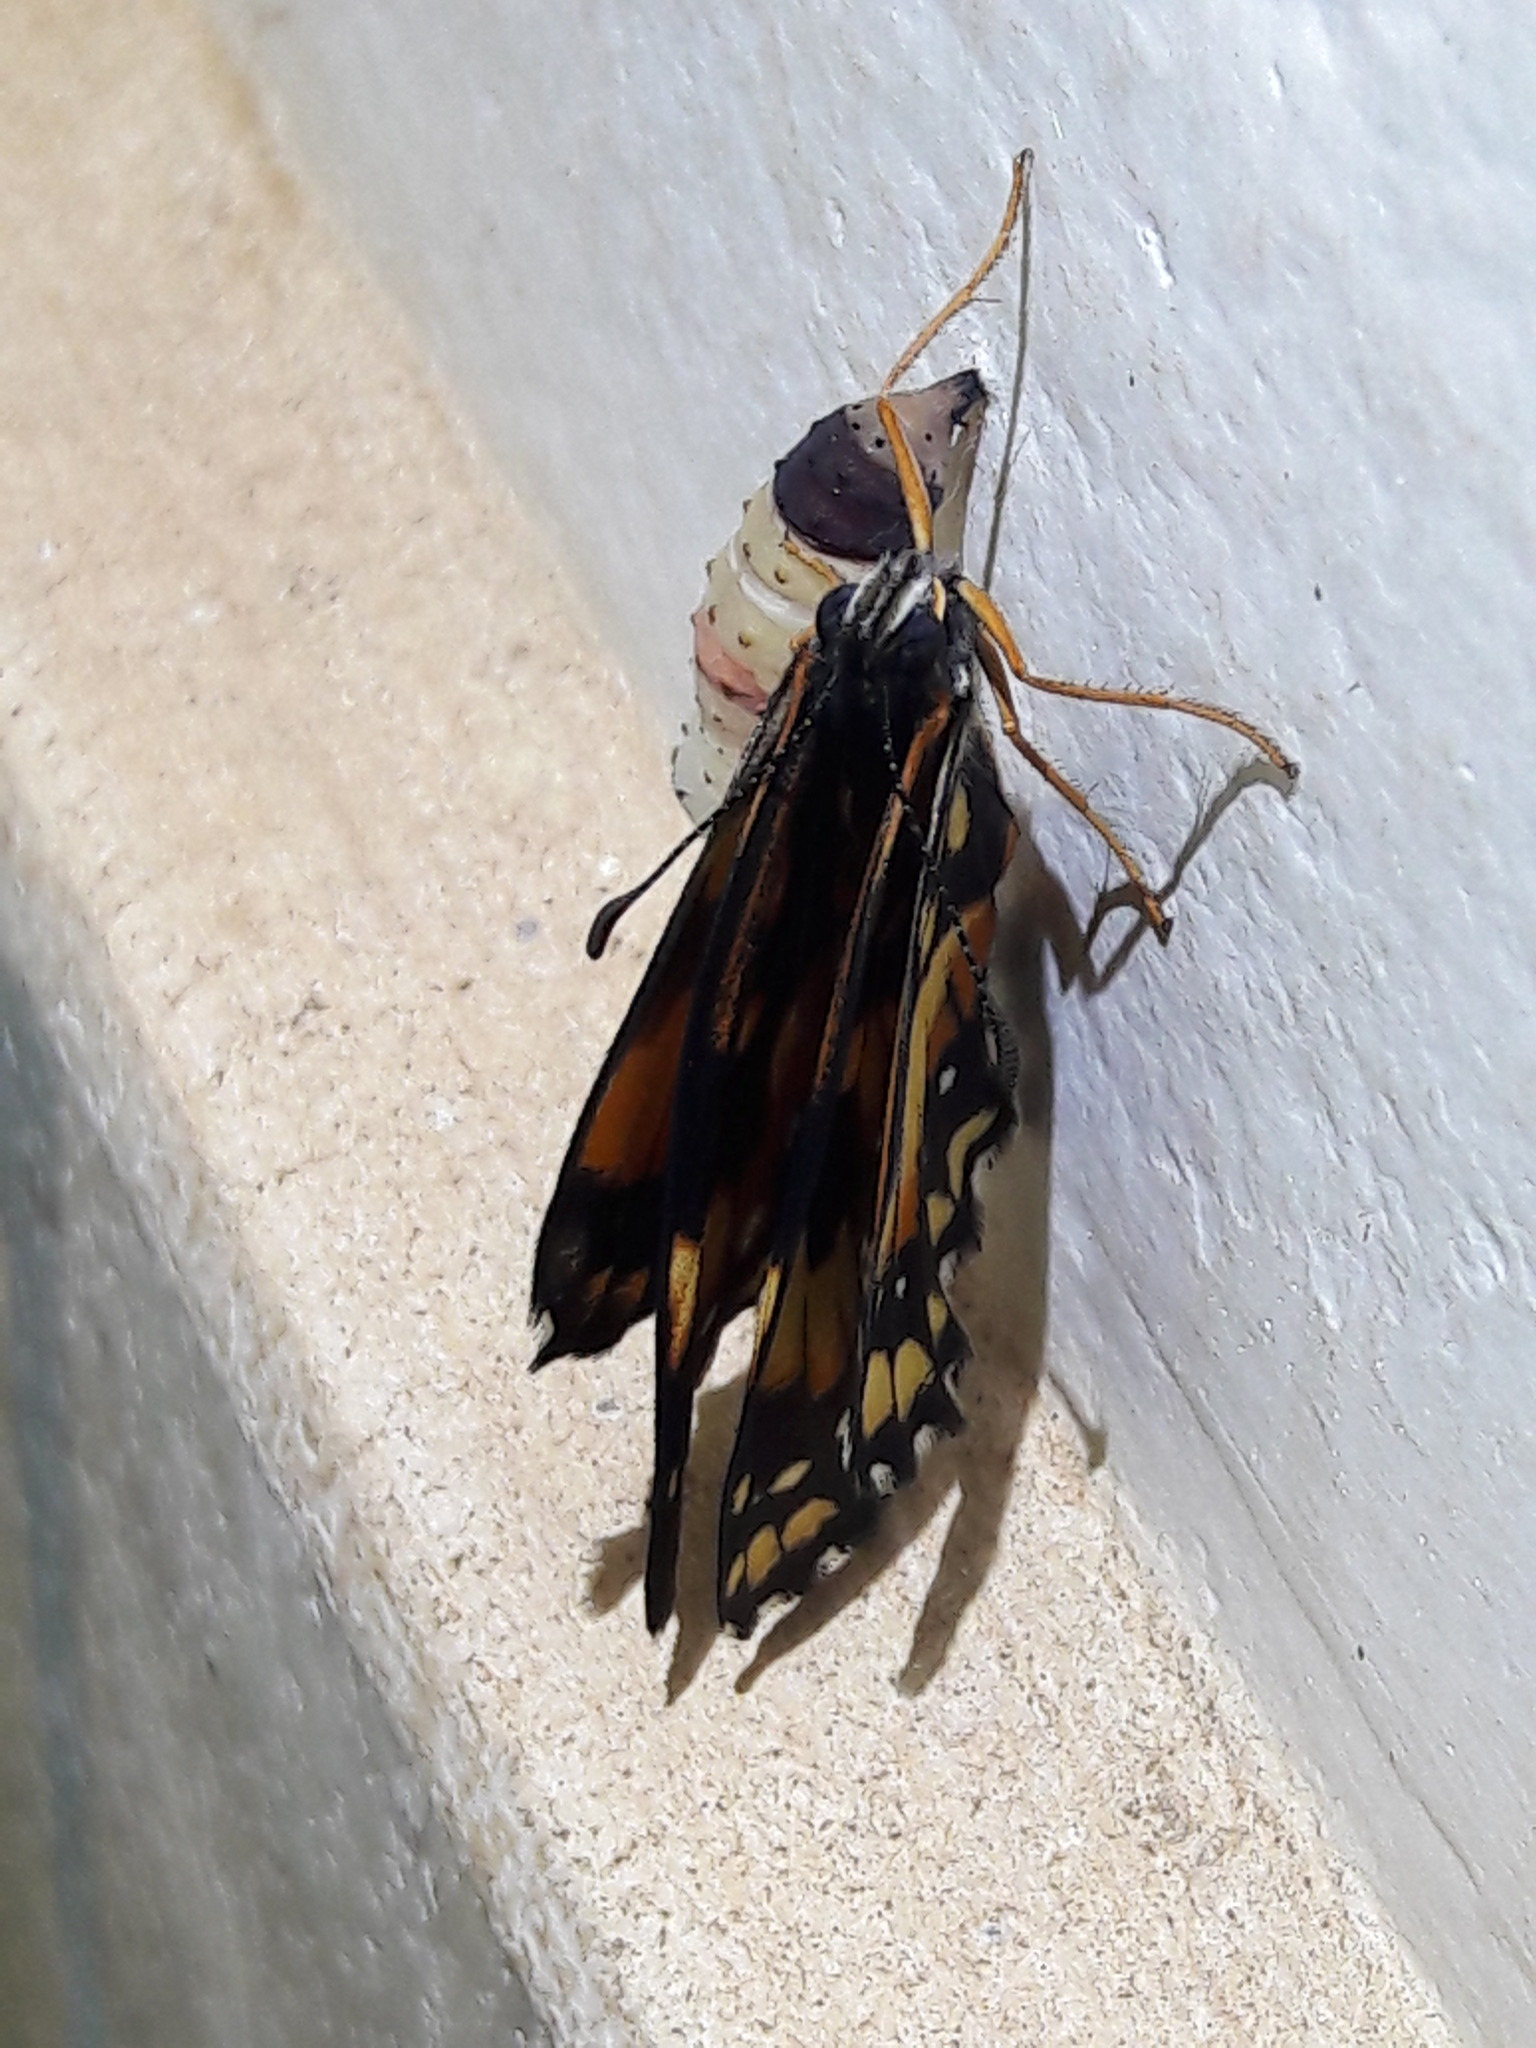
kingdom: Animalia
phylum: Arthropoda
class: Insecta
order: Lepidoptera
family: Nymphalidae
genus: Chlosyne
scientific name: Chlosyne lacinia
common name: Bordered patch
